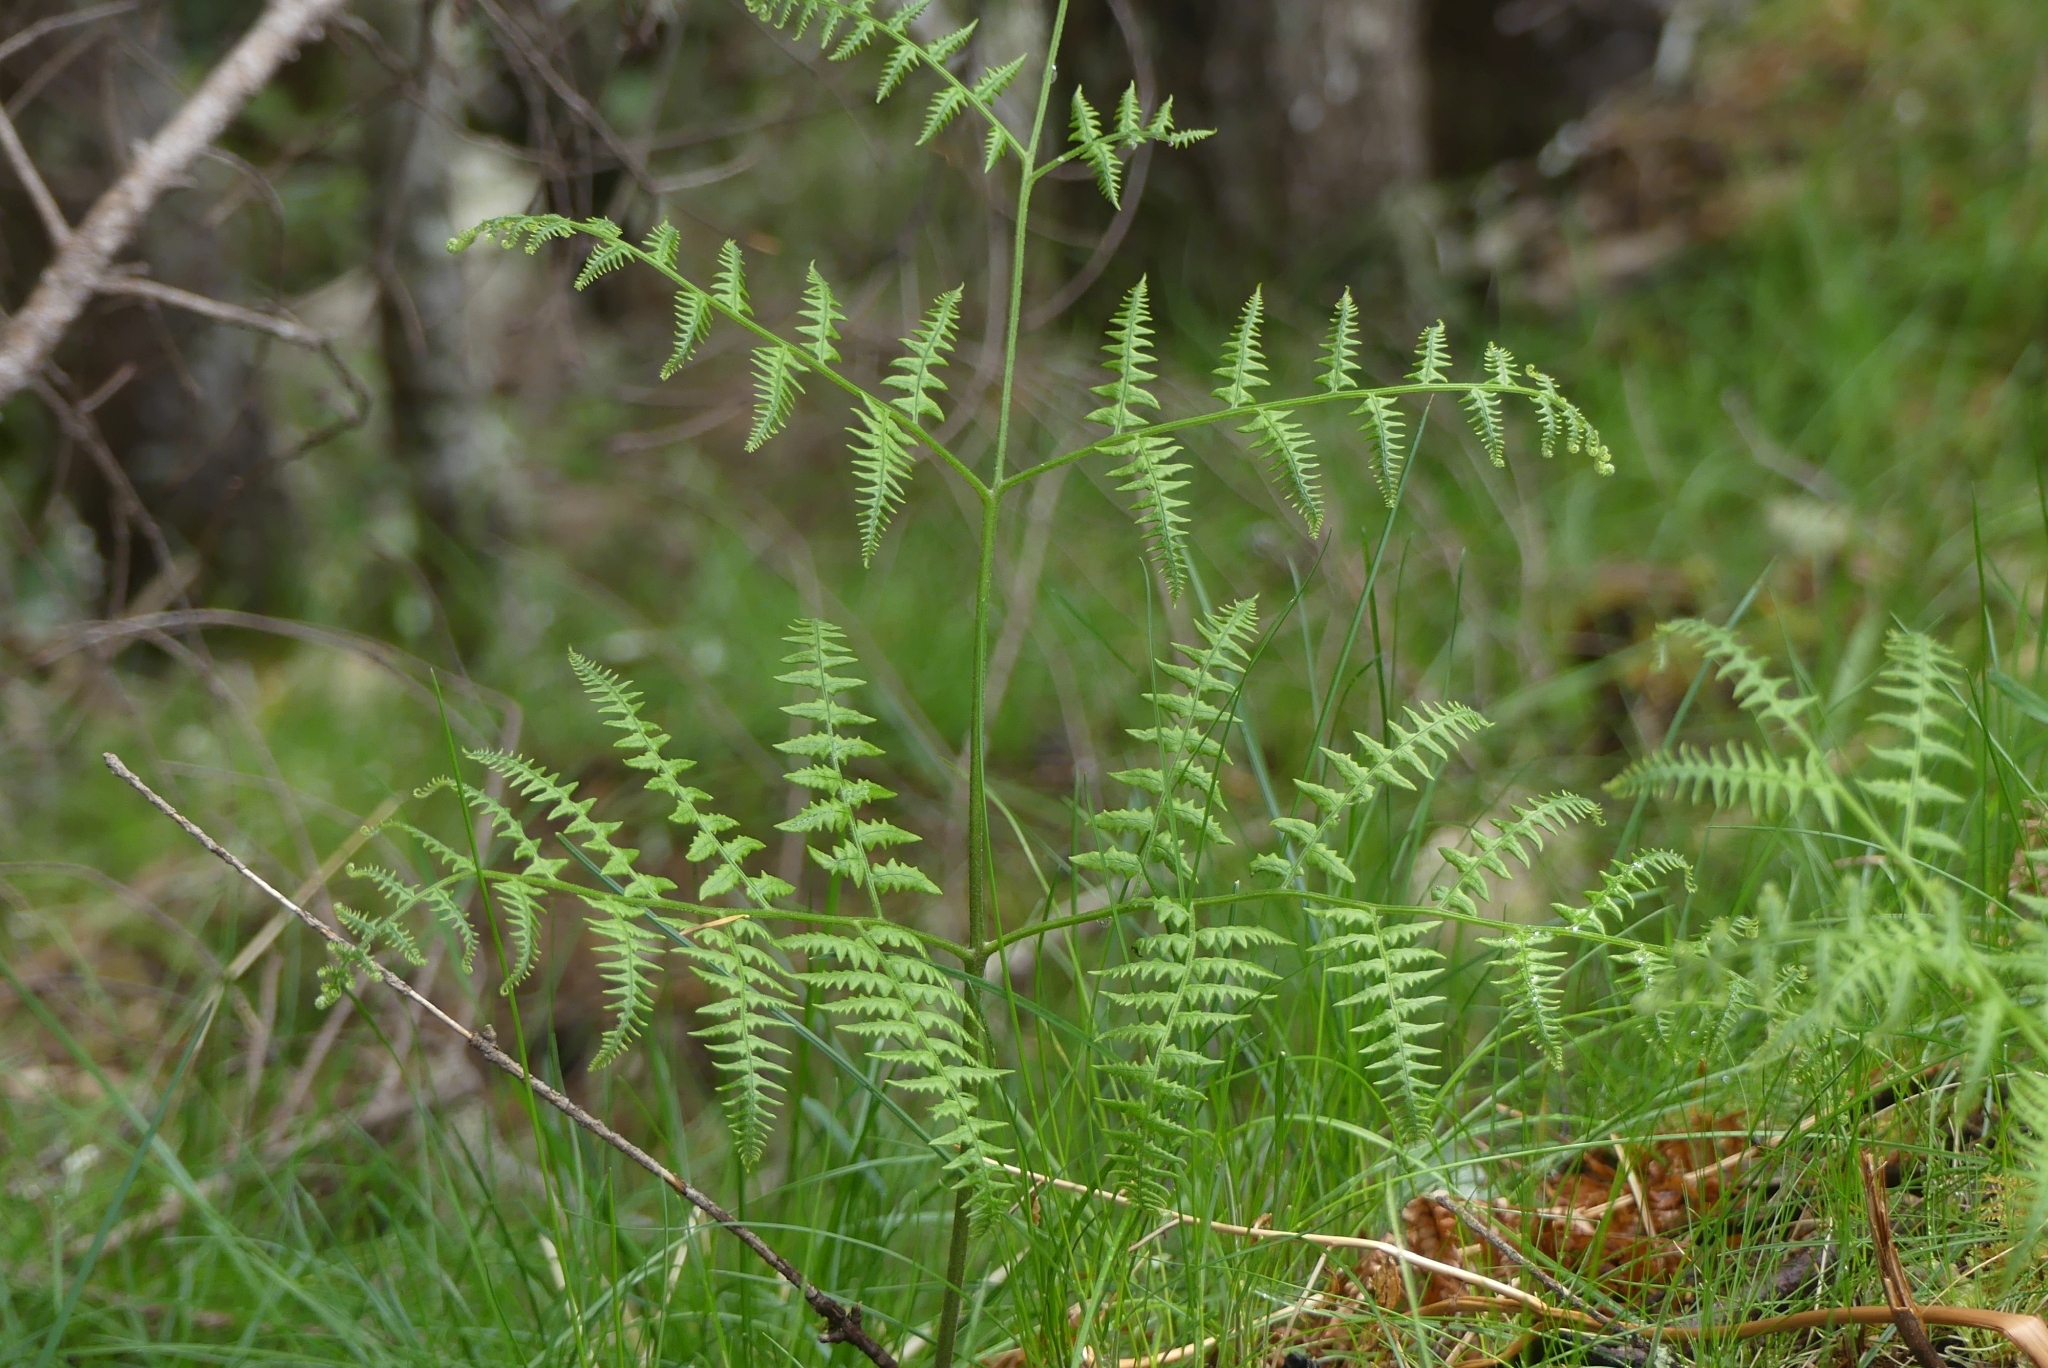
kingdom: Plantae
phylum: Tracheophyta
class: Polypodiopsida
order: Polypodiales
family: Dennstaedtiaceae
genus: Pteridium
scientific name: Pteridium aquilinum
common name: Bracken
